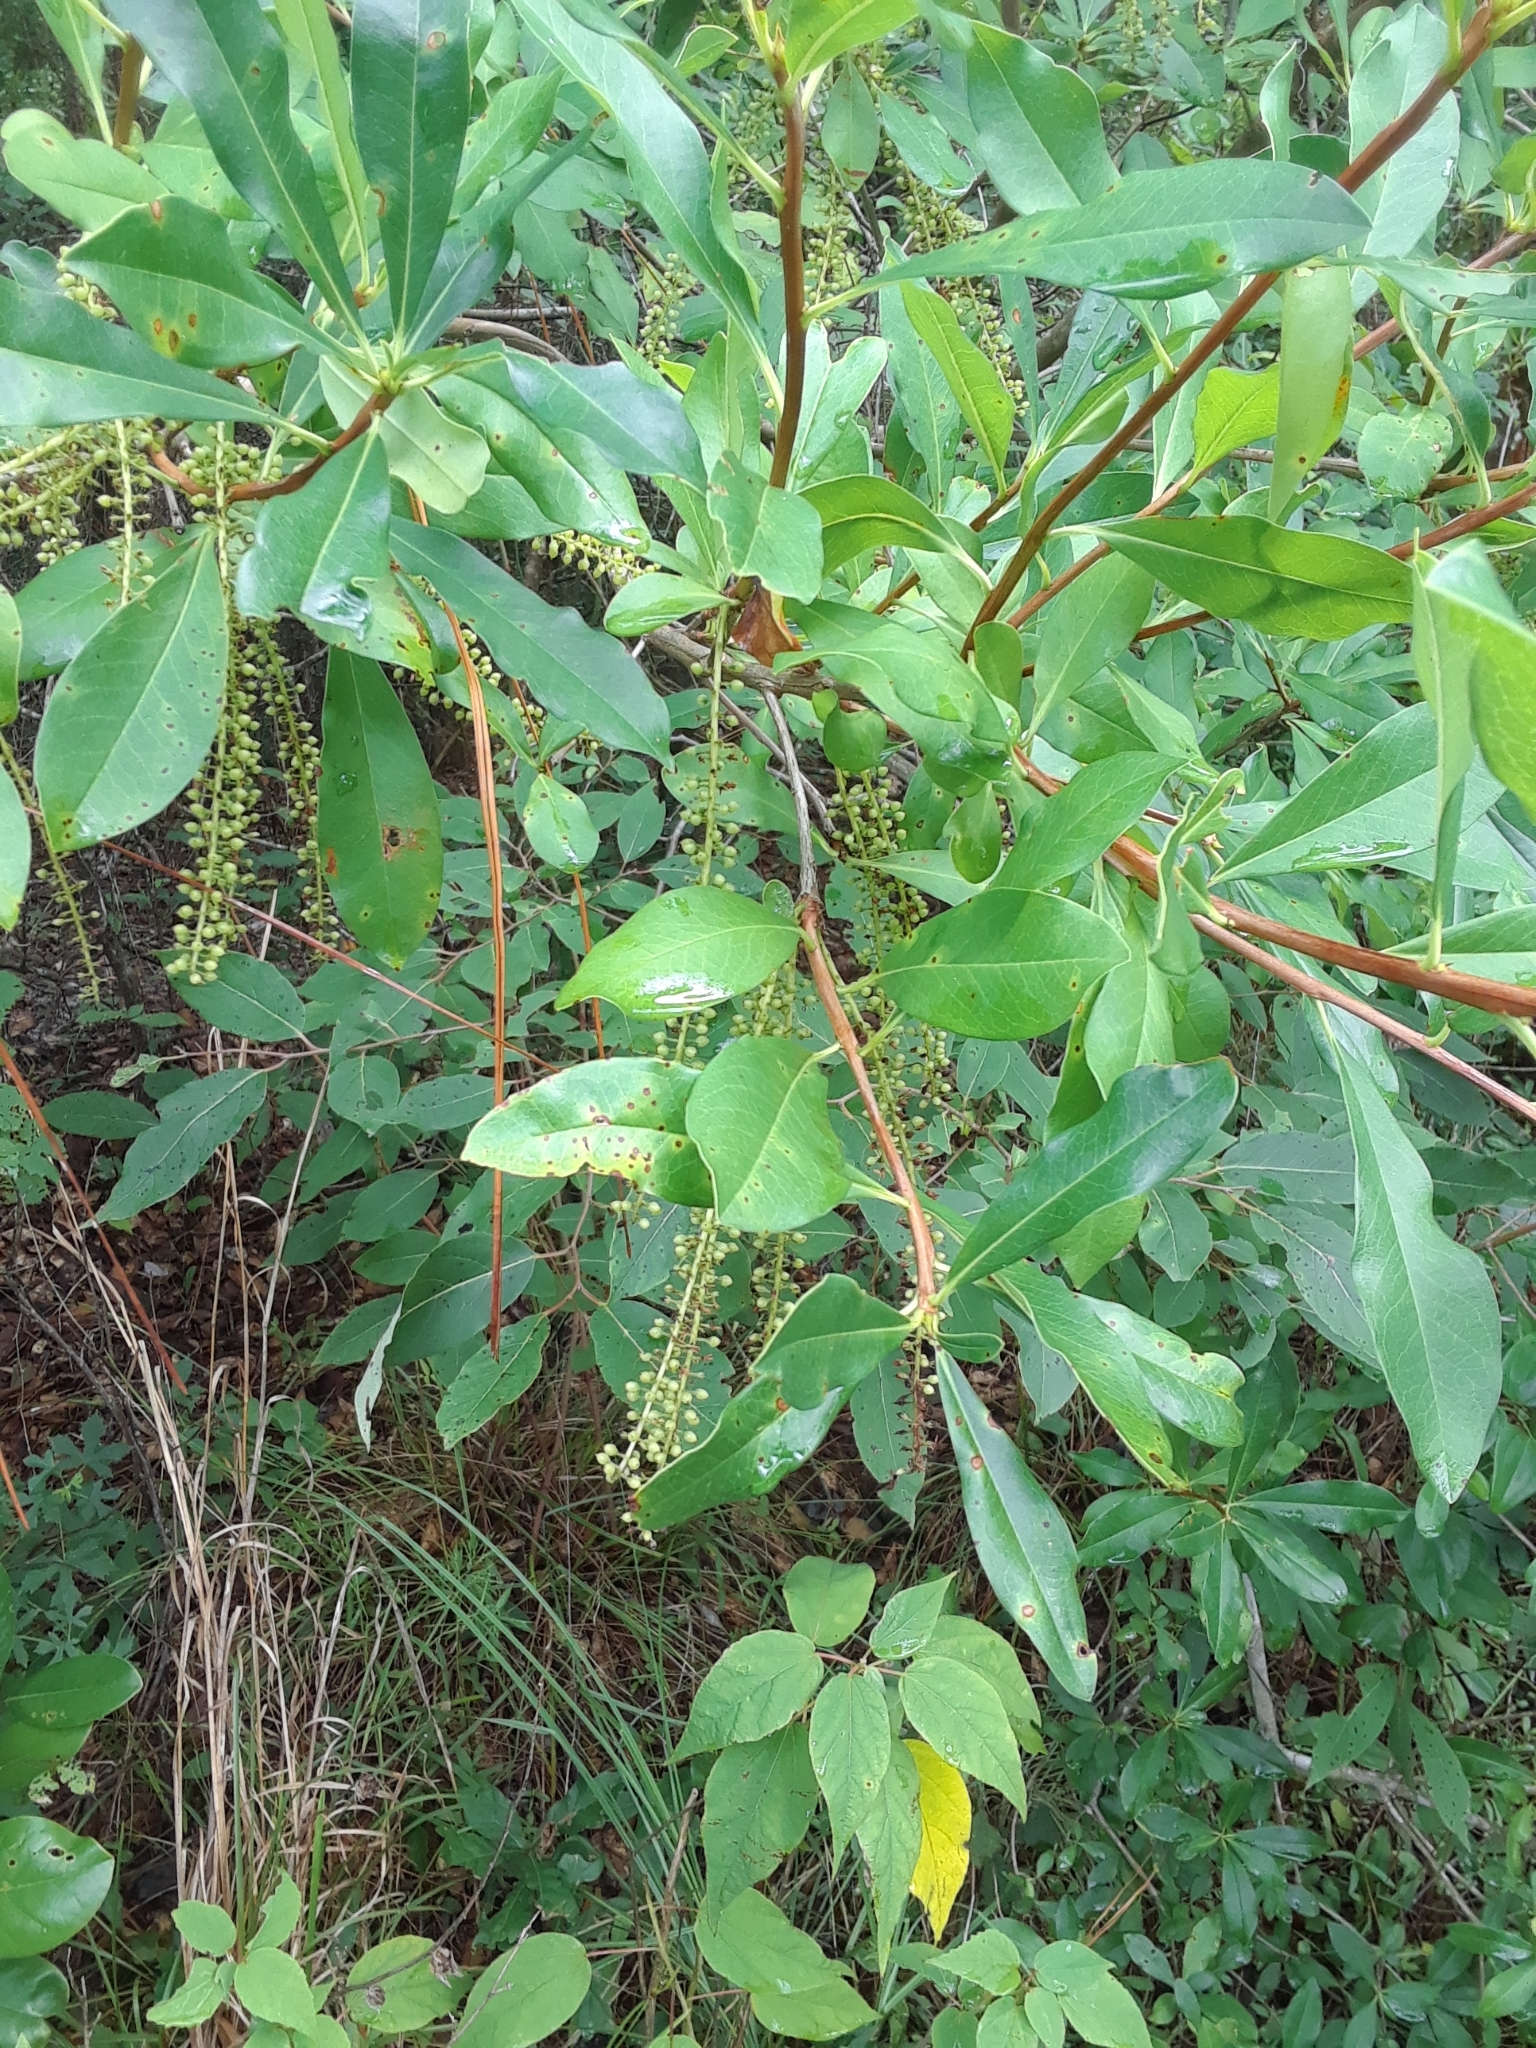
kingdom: Plantae
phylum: Tracheophyta
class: Magnoliopsida
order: Ericales
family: Cyrillaceae
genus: Cyrilla
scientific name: Cyrilla racemiflora
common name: Black titi
